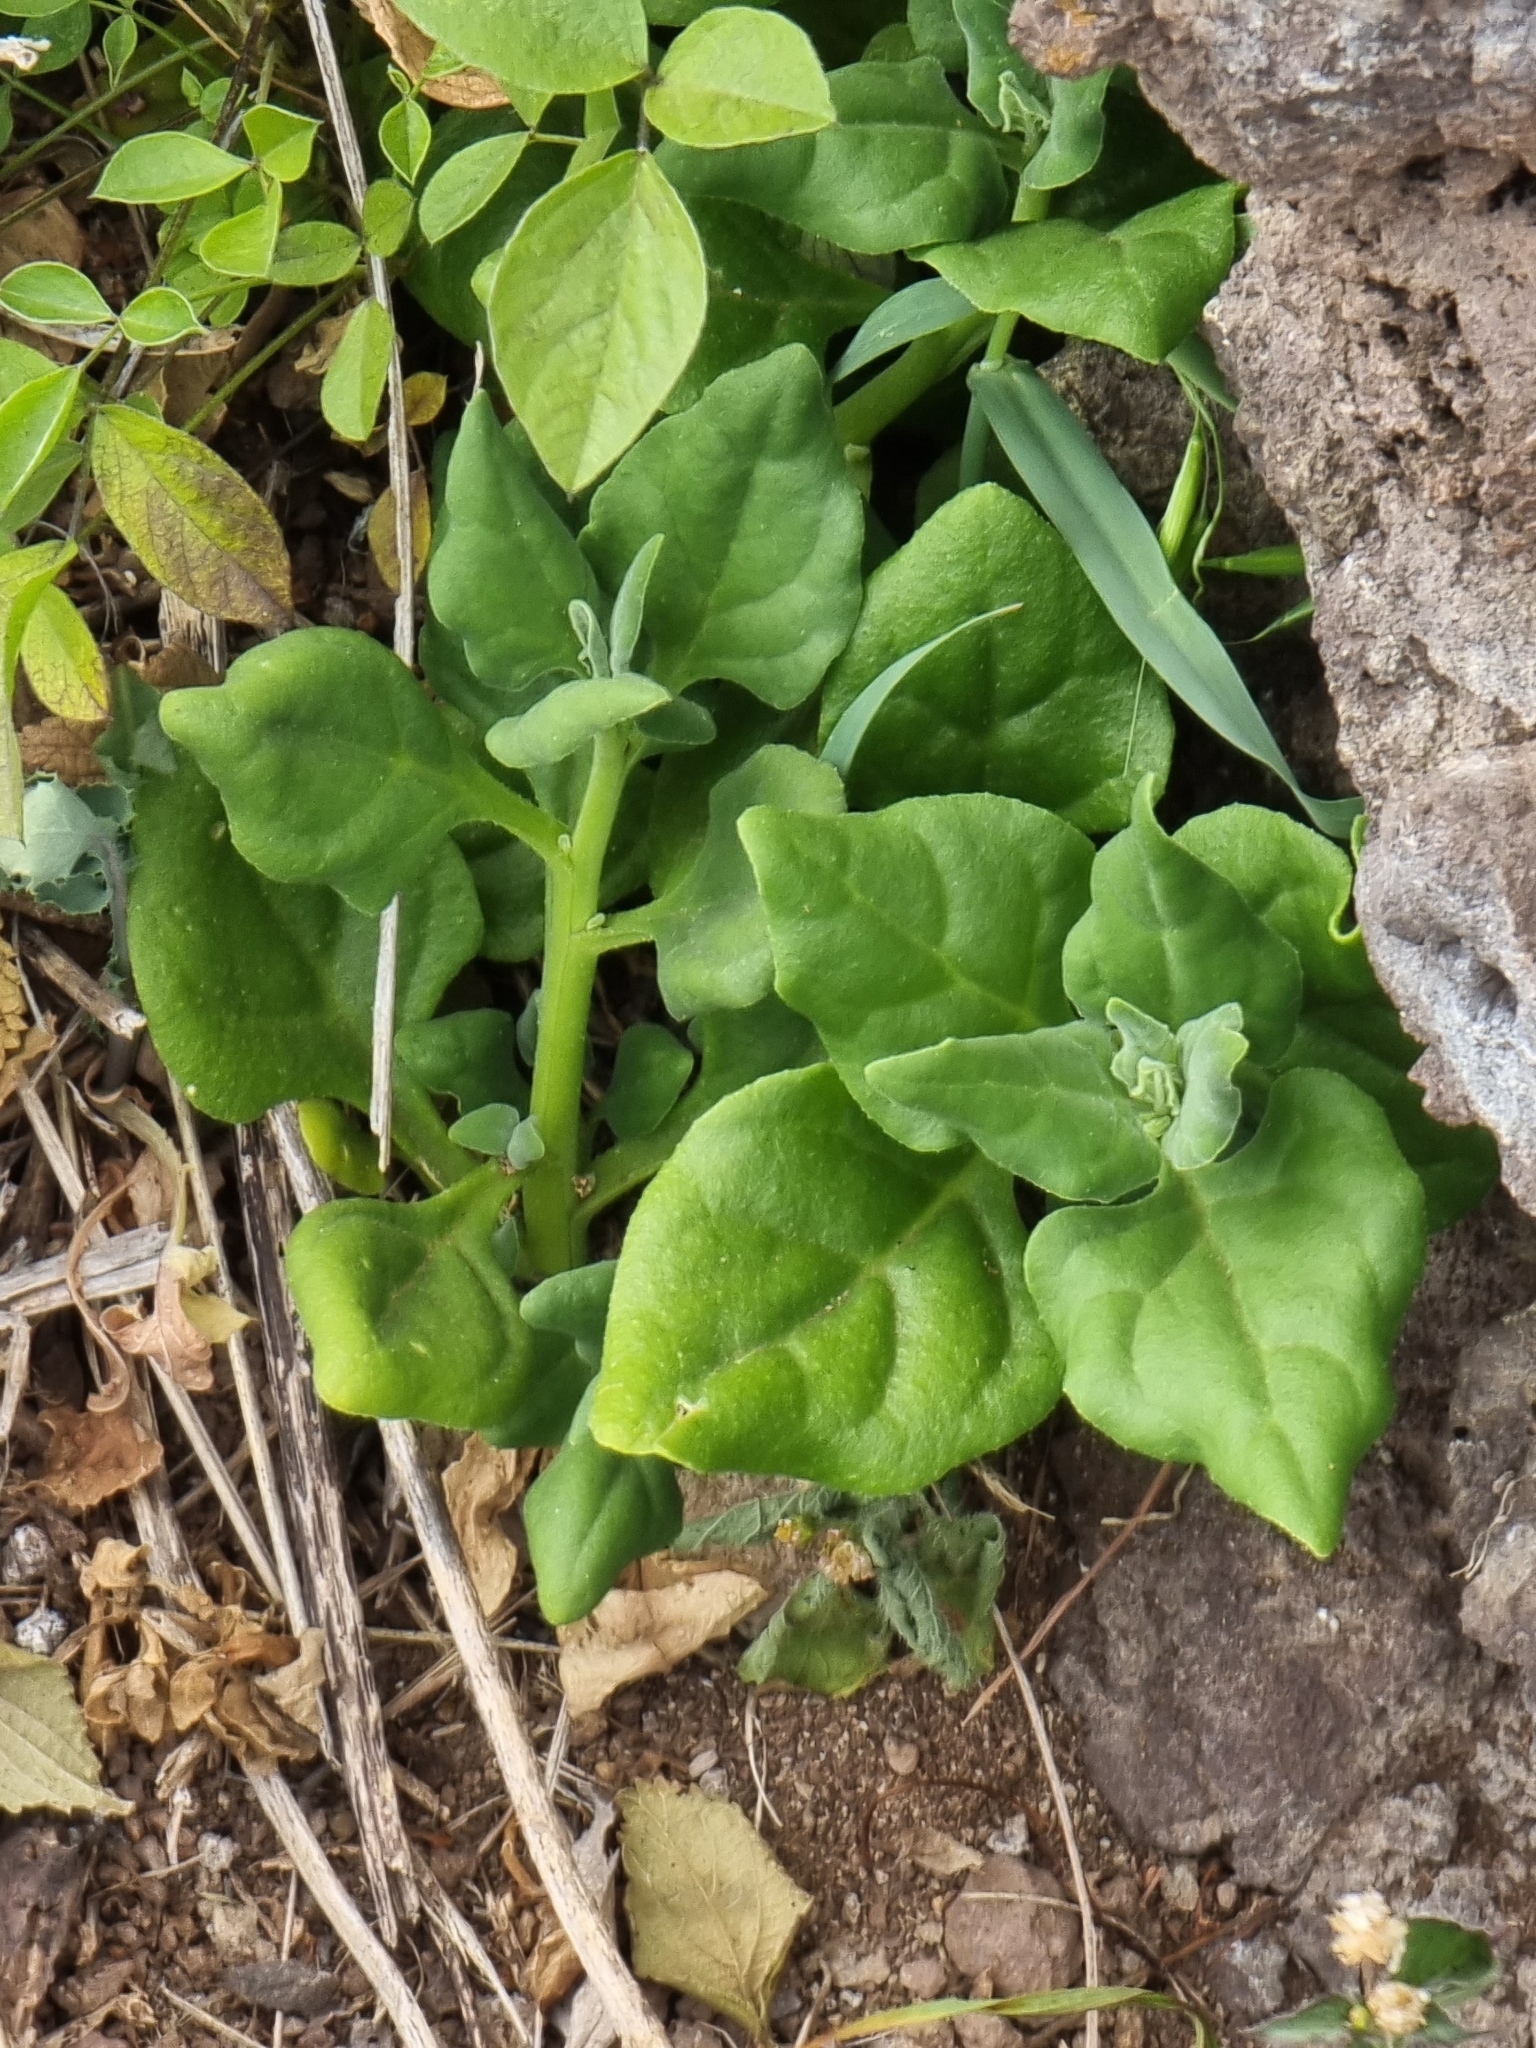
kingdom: Plantae
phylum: Tracheophyta
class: Magnoliopsida
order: Caryophyllales
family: Aizoaceae
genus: Tetragonia
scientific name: Tetragonia tetragonoides
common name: New zealand-spinach
